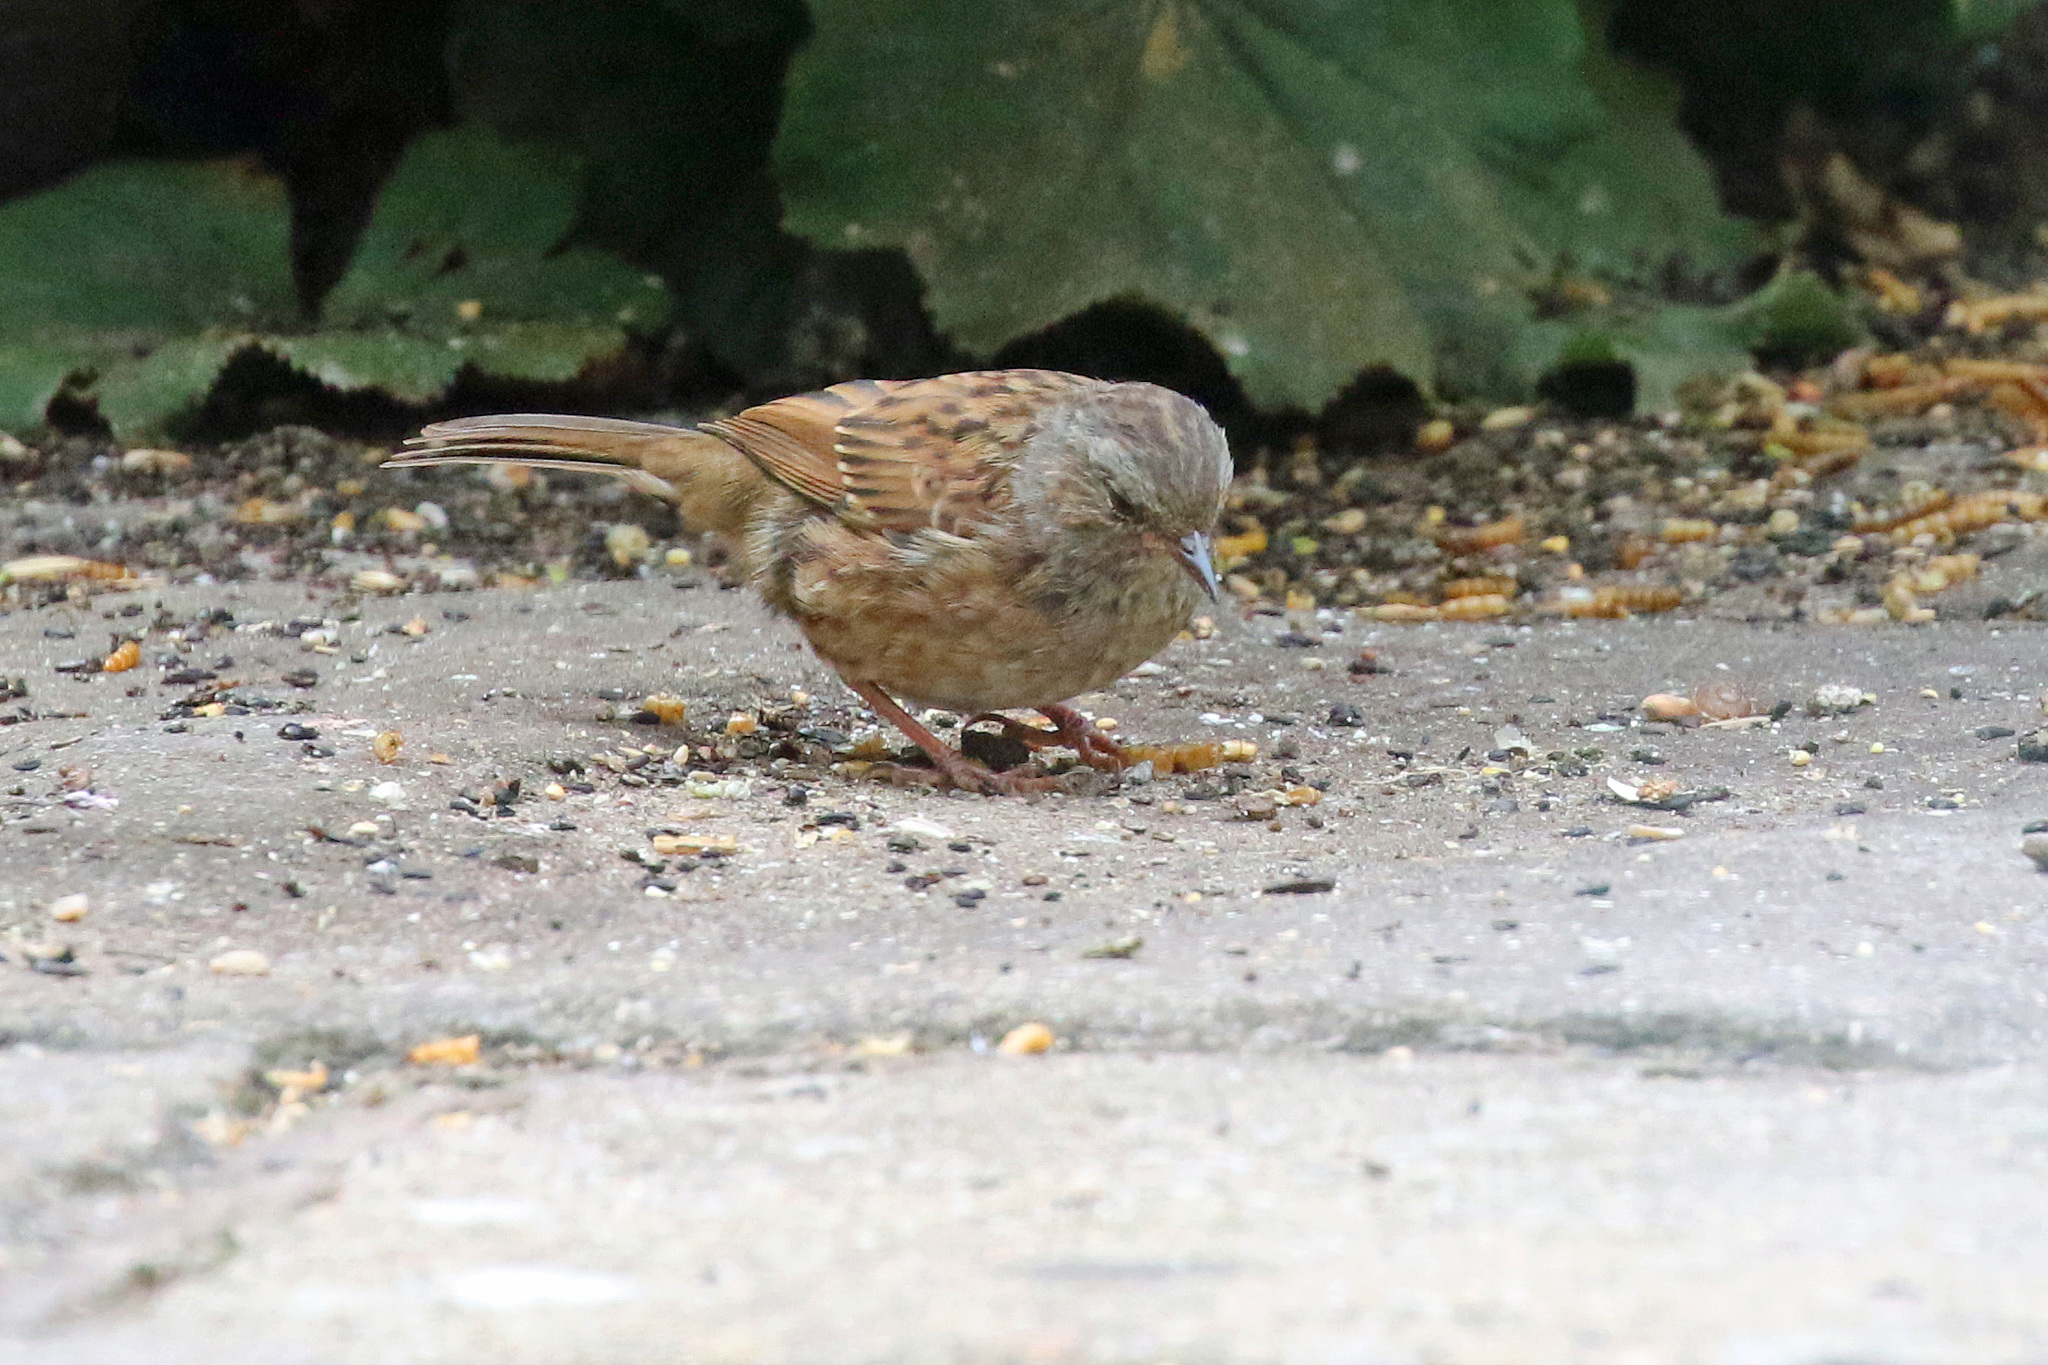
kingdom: Animalia
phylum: Chordata
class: Aves
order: Passeriformes
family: Prunellidae
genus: Prunella
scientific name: Prunella modularis
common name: Dunnock
